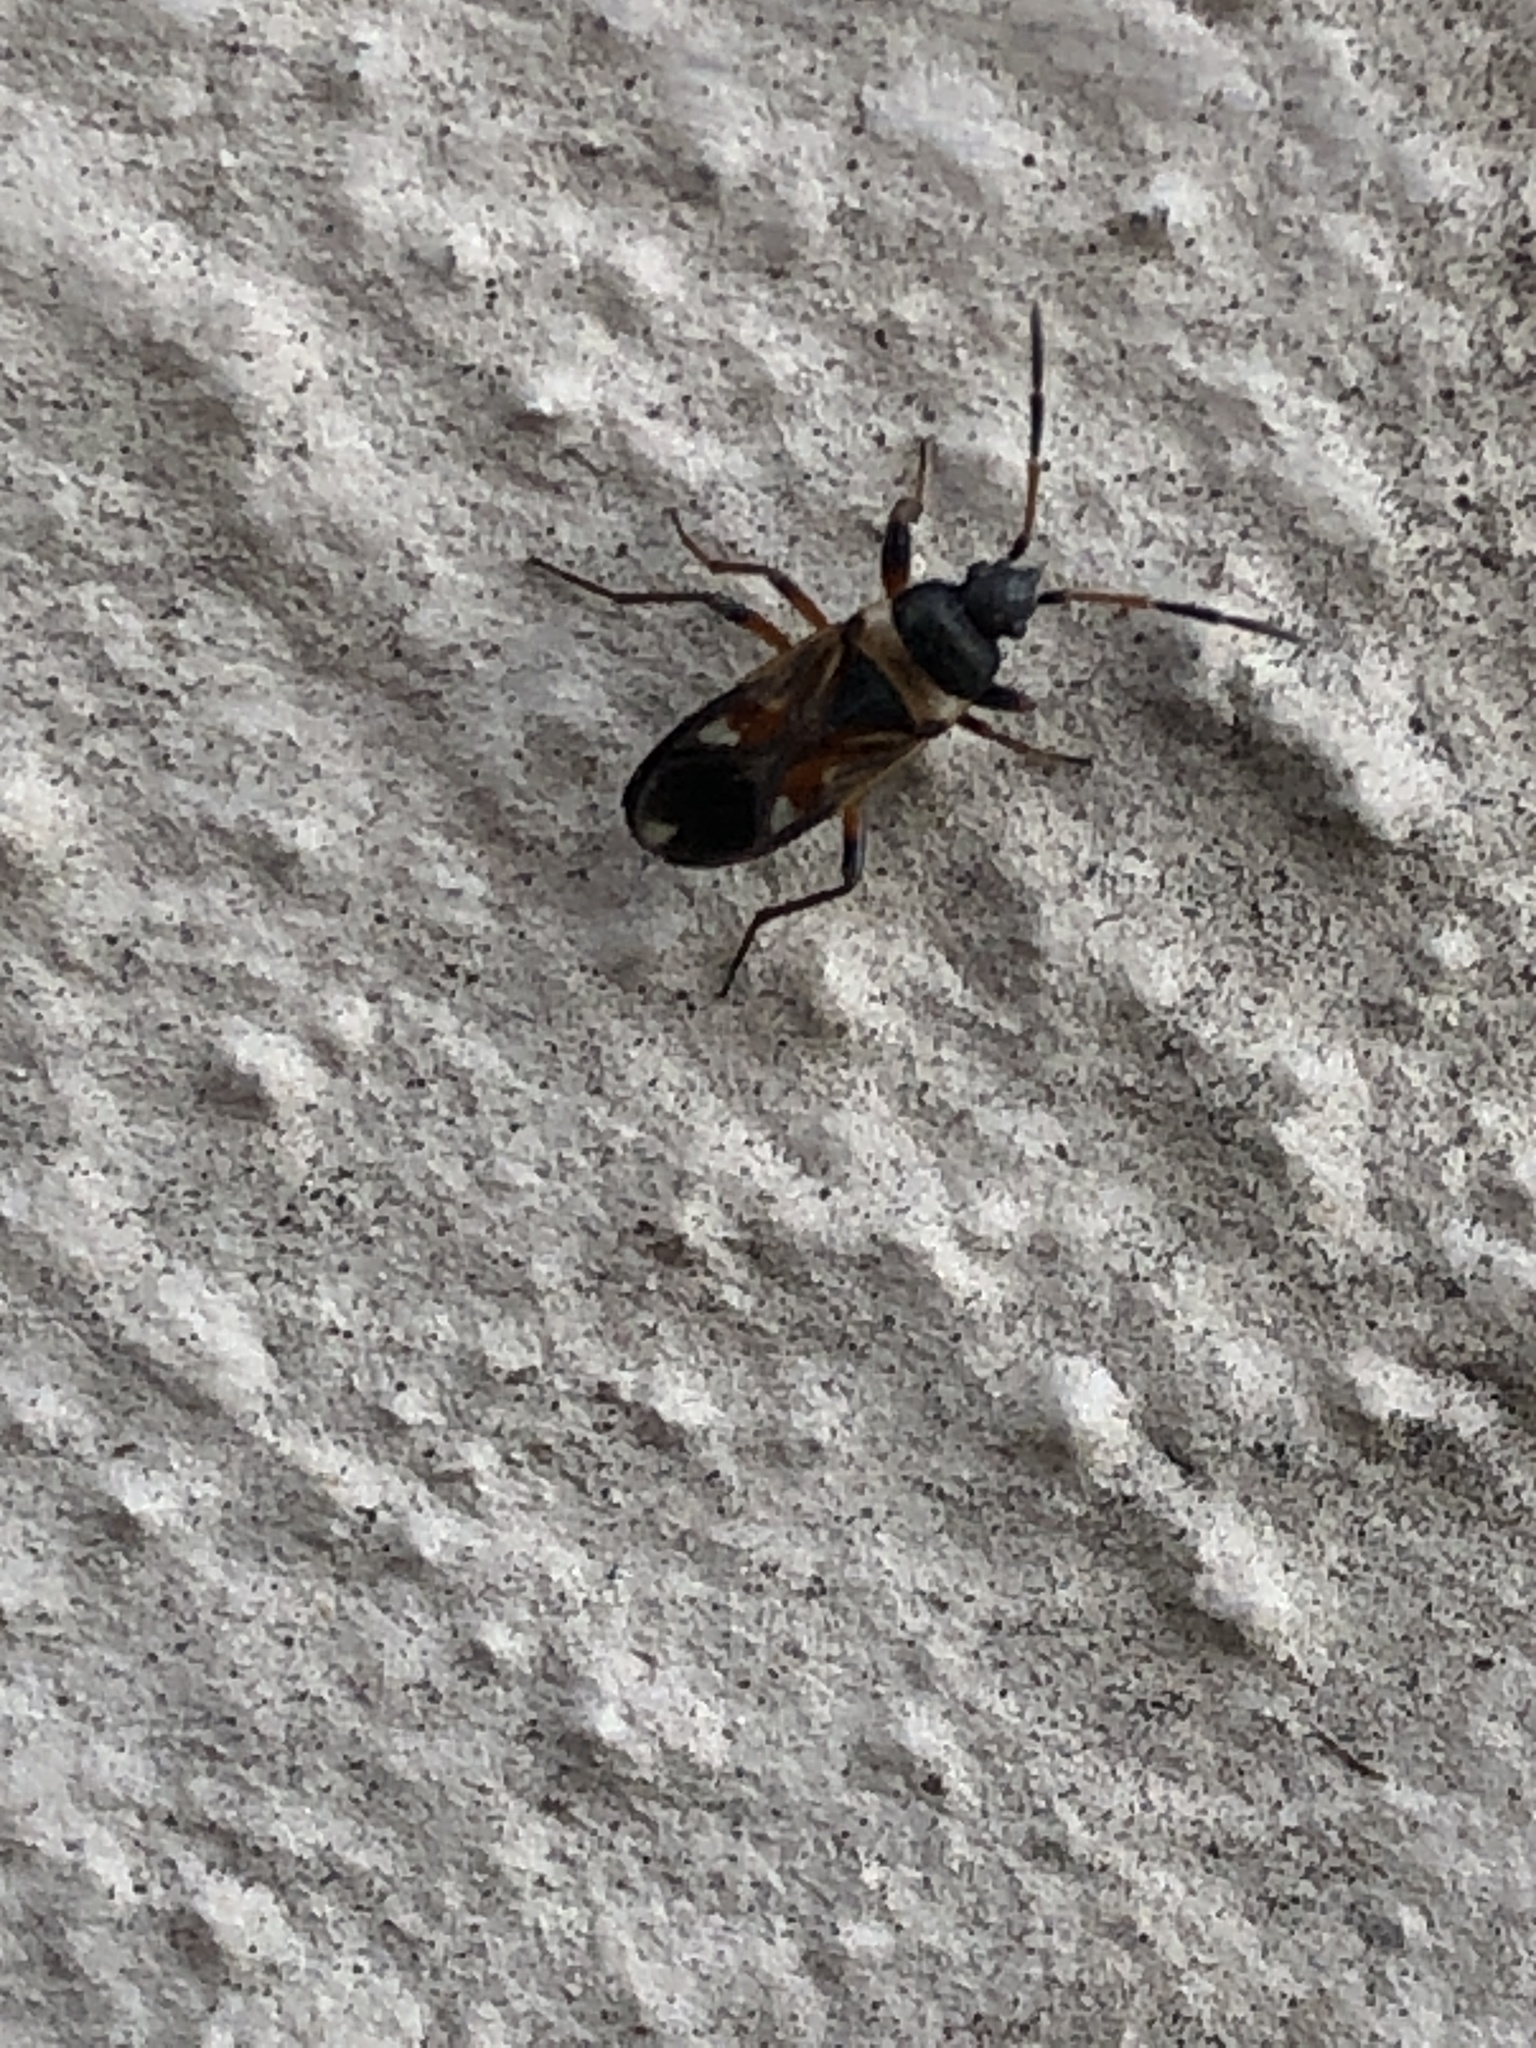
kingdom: Animalia
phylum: Arthropoda
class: Insecta
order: Hemiptera
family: Rhyparochromidae
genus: Raglius
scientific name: Raglius alboacuminatus
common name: Dirt-colored seed bug
